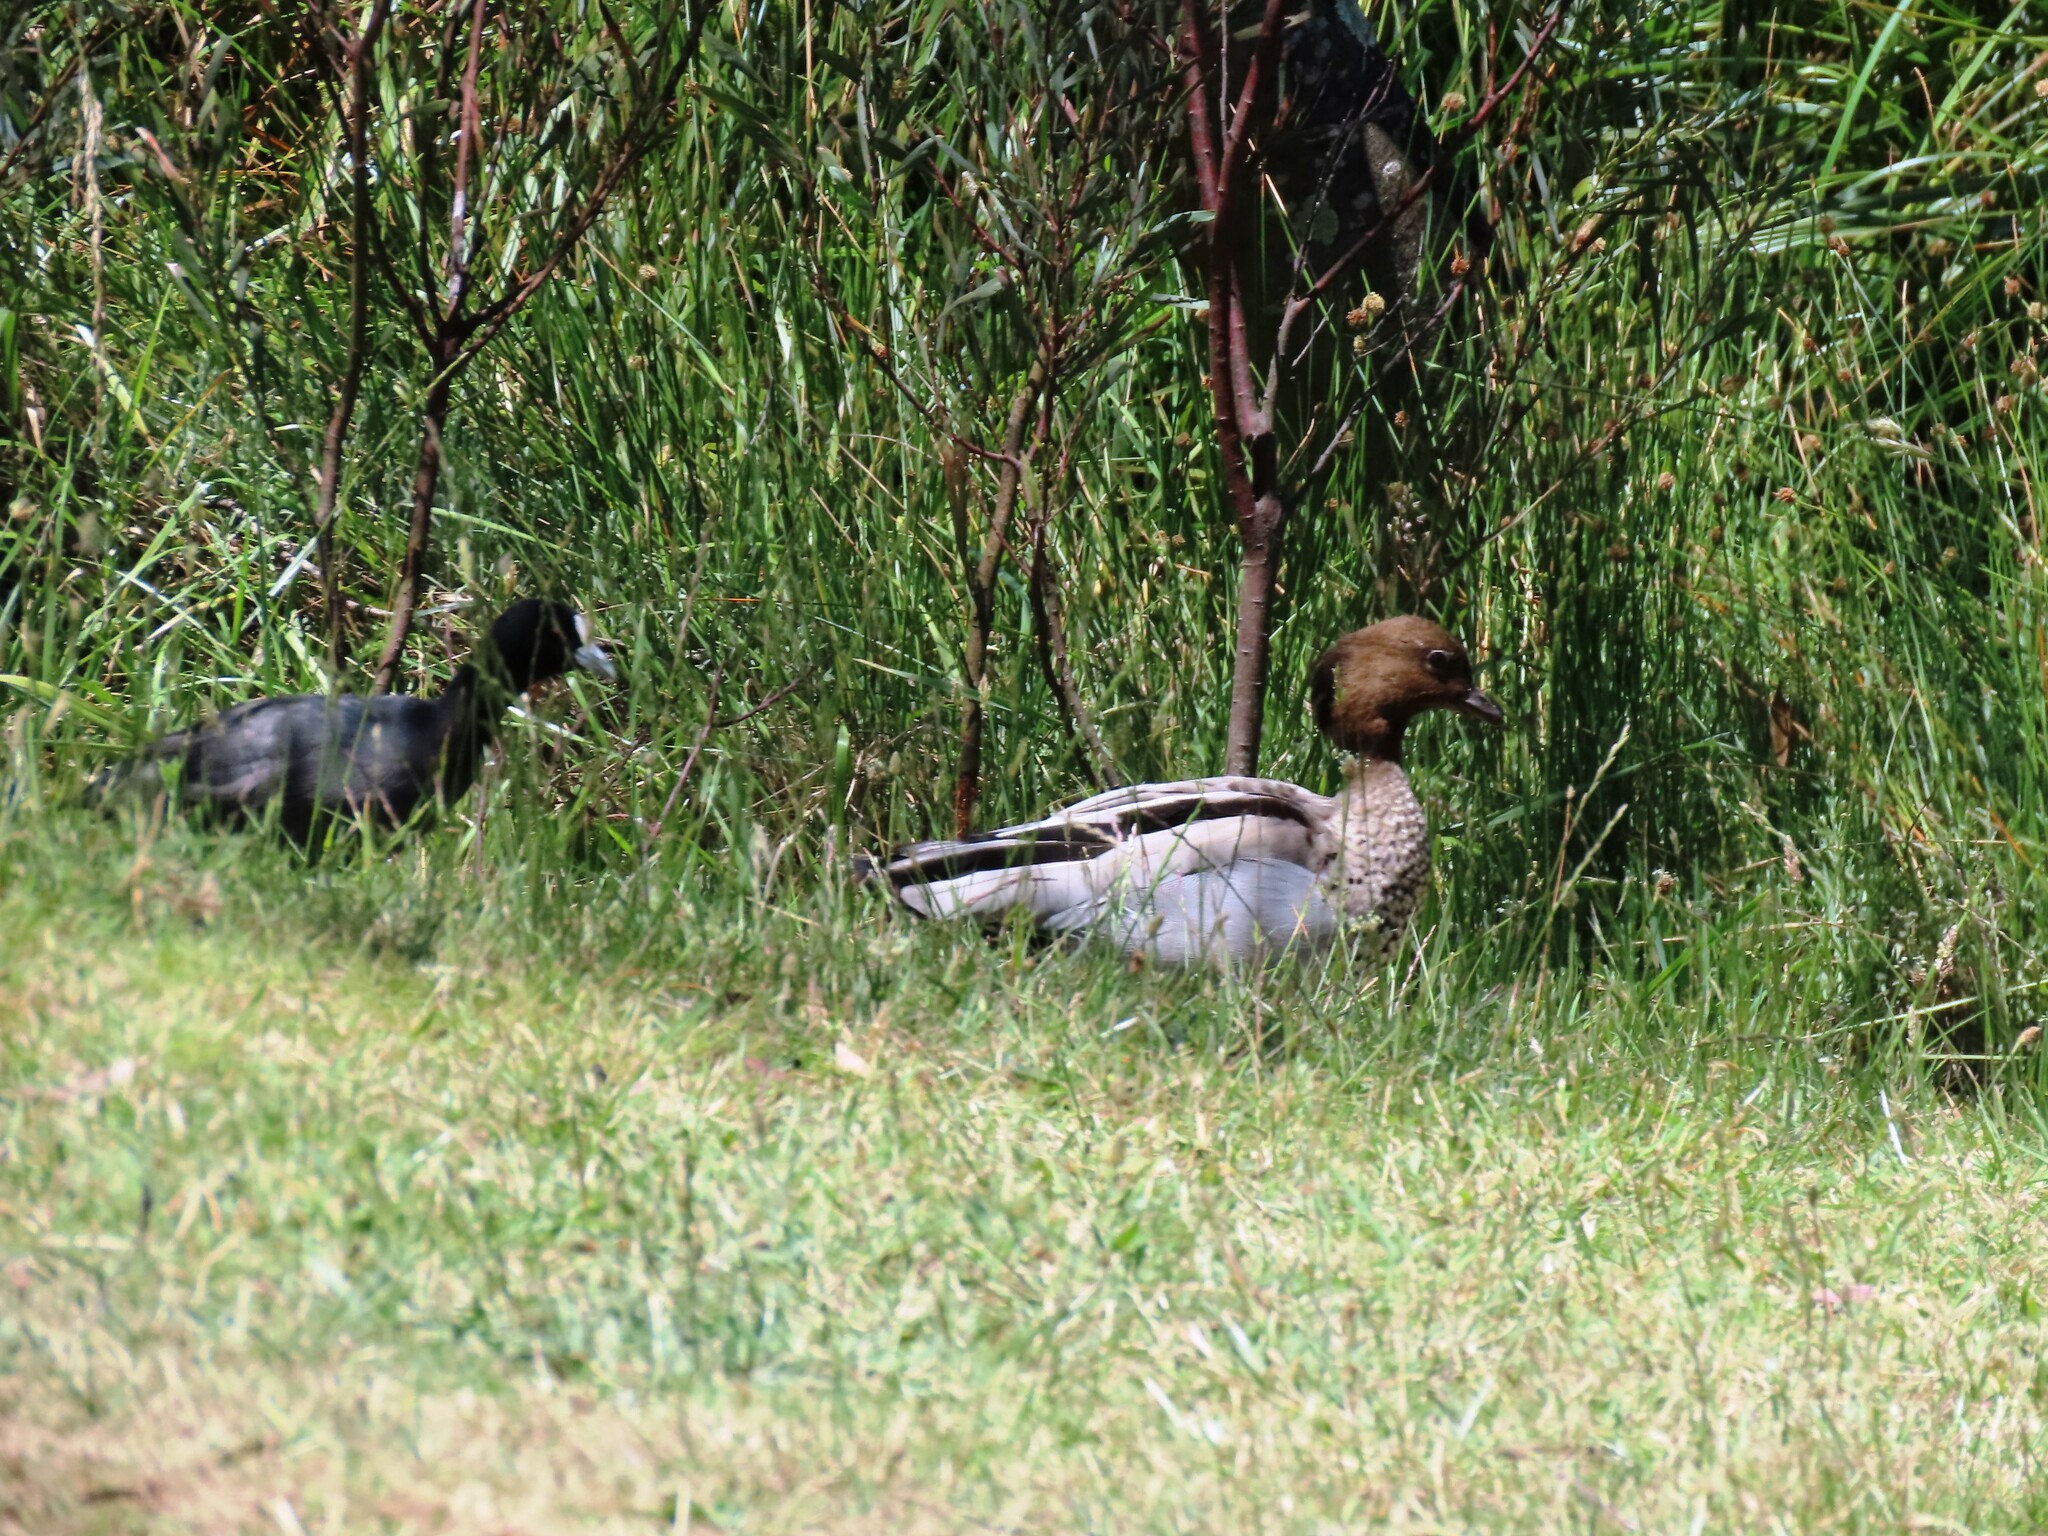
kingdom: Animalia
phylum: Chordata
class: Aves
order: Anseriformes
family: Anatidae
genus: Chenonetta
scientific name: Chenonetta jubata
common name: Maned duck
